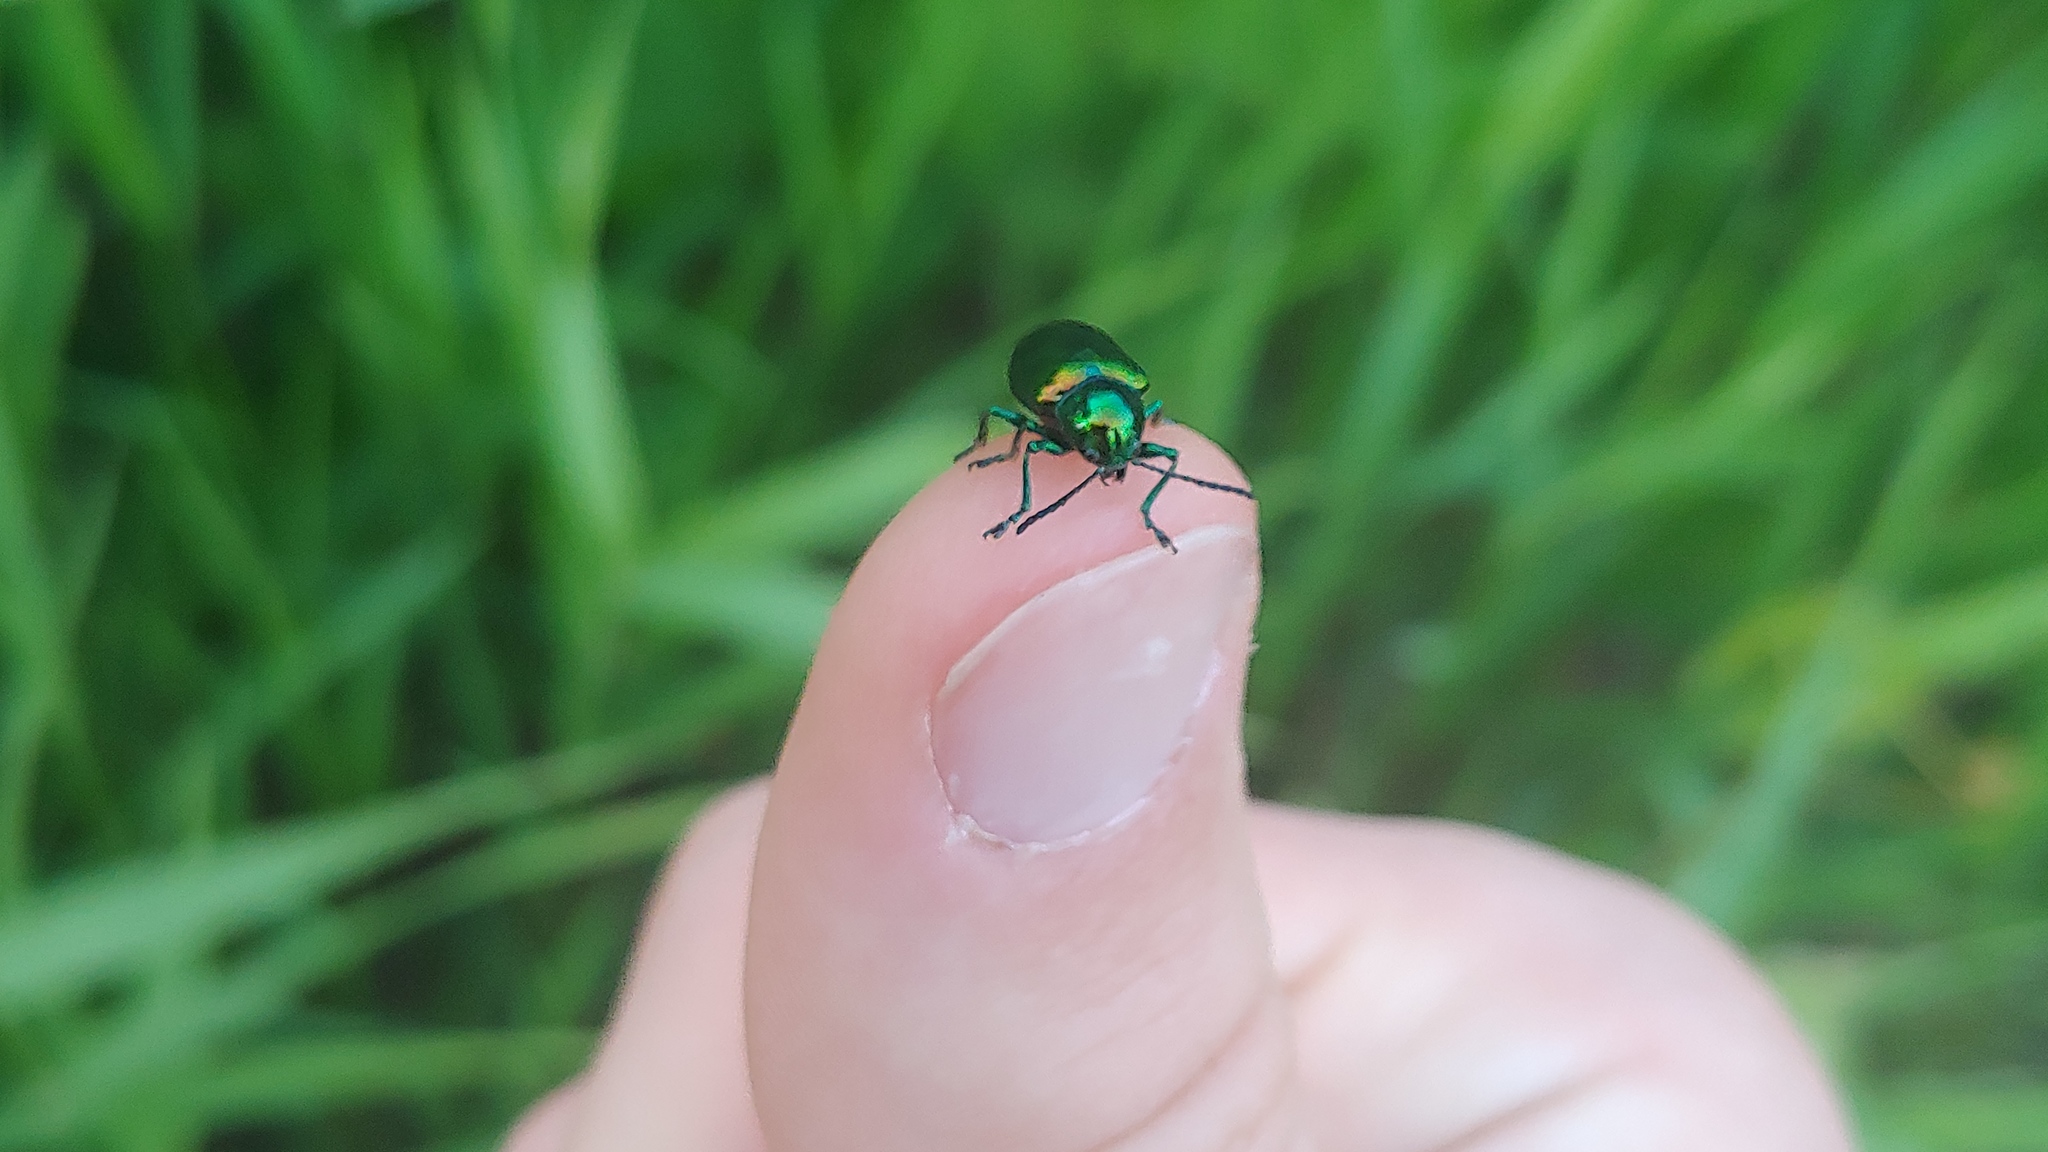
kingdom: Animalia
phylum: Arthropoda
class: Insecta
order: Coleoptera
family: Chrysomelidae
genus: Chrysochus
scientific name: Chrysochus auratus
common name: Dogbane leaf beetle
